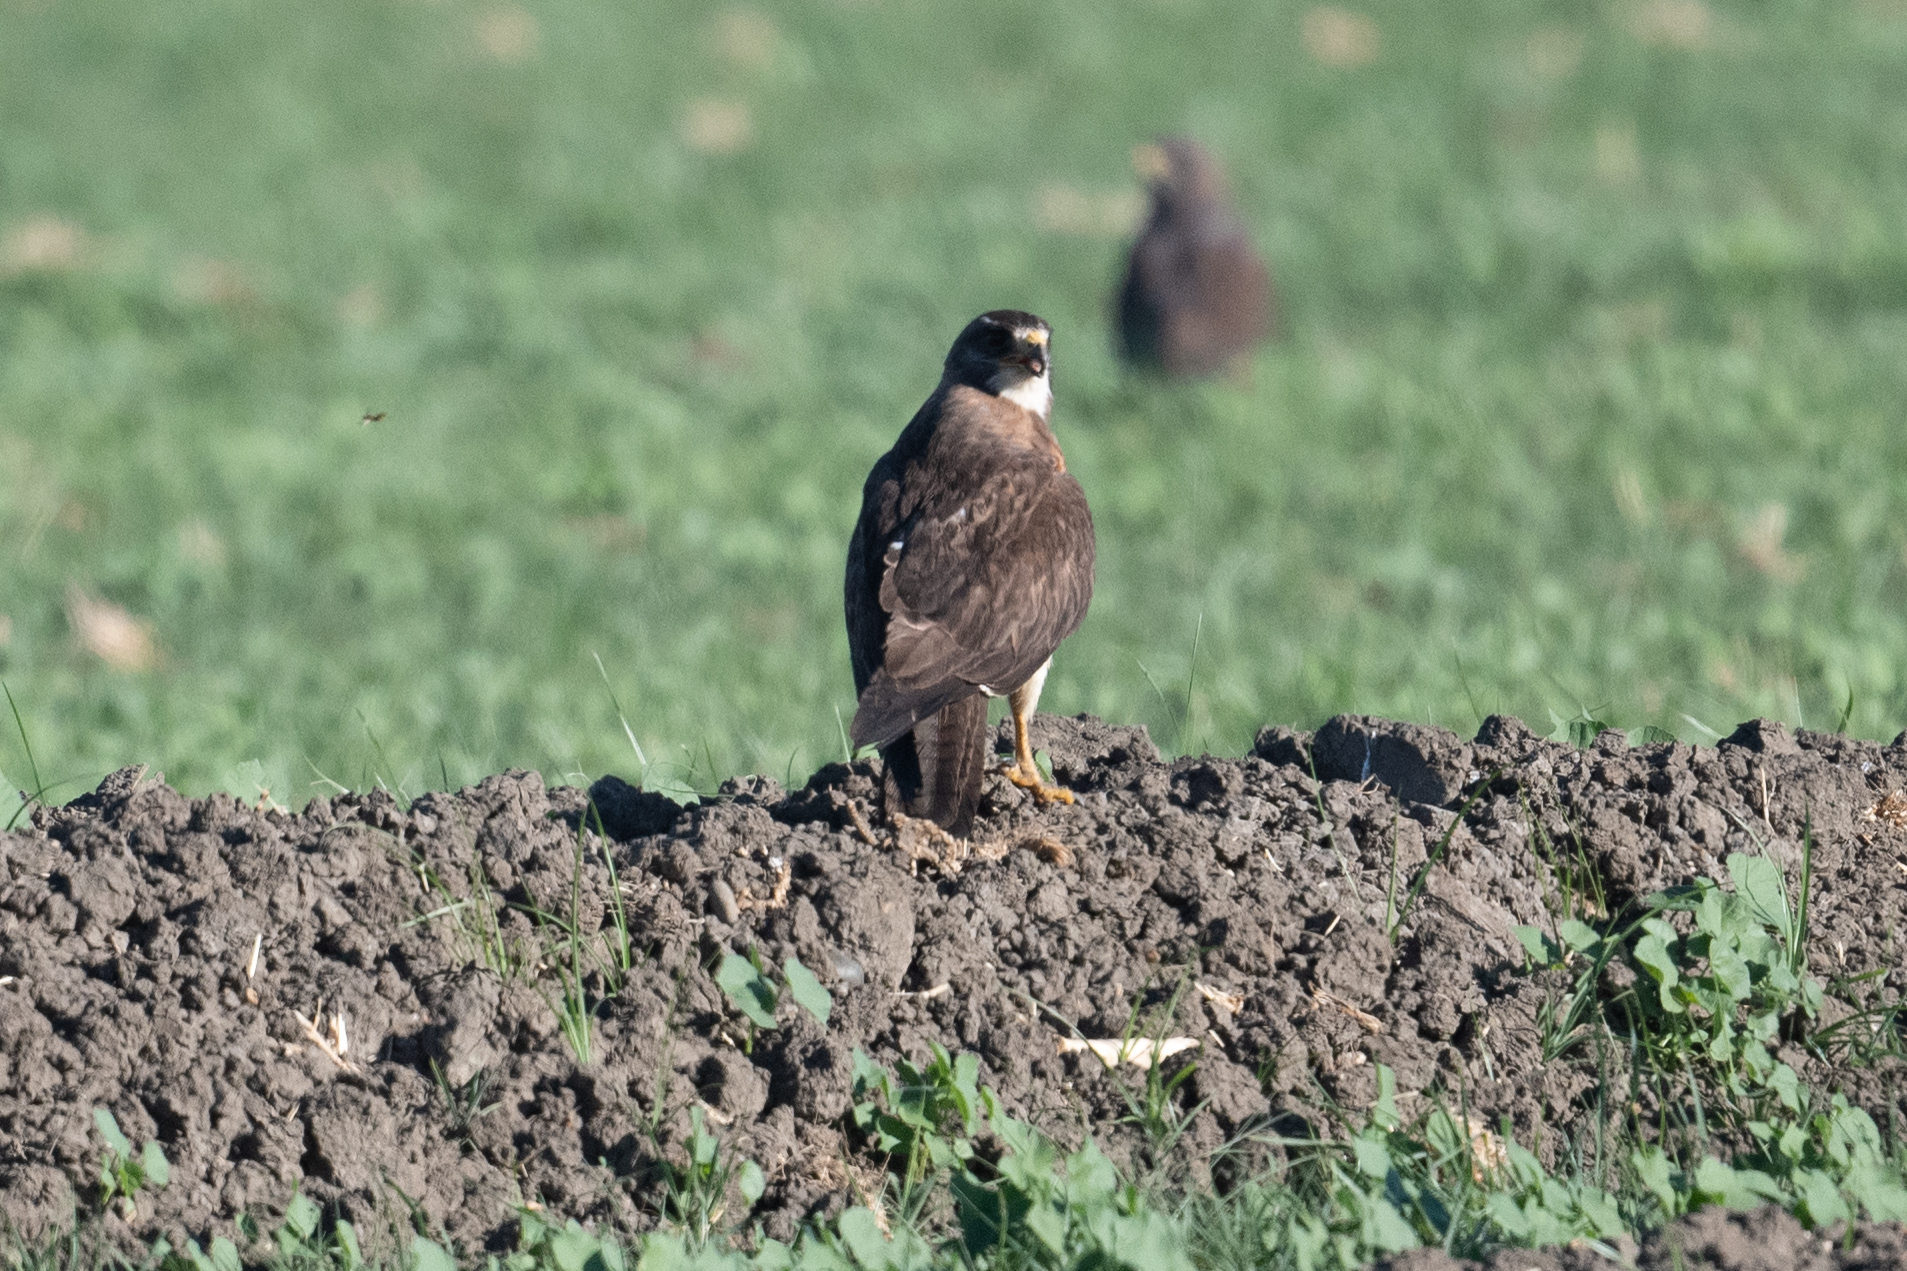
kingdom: Animalia
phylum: Chordata
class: Aves
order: Accipitriformes
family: Accipitridae
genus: Buteo
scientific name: Buteo swainsoni
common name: Swainson's hawk
